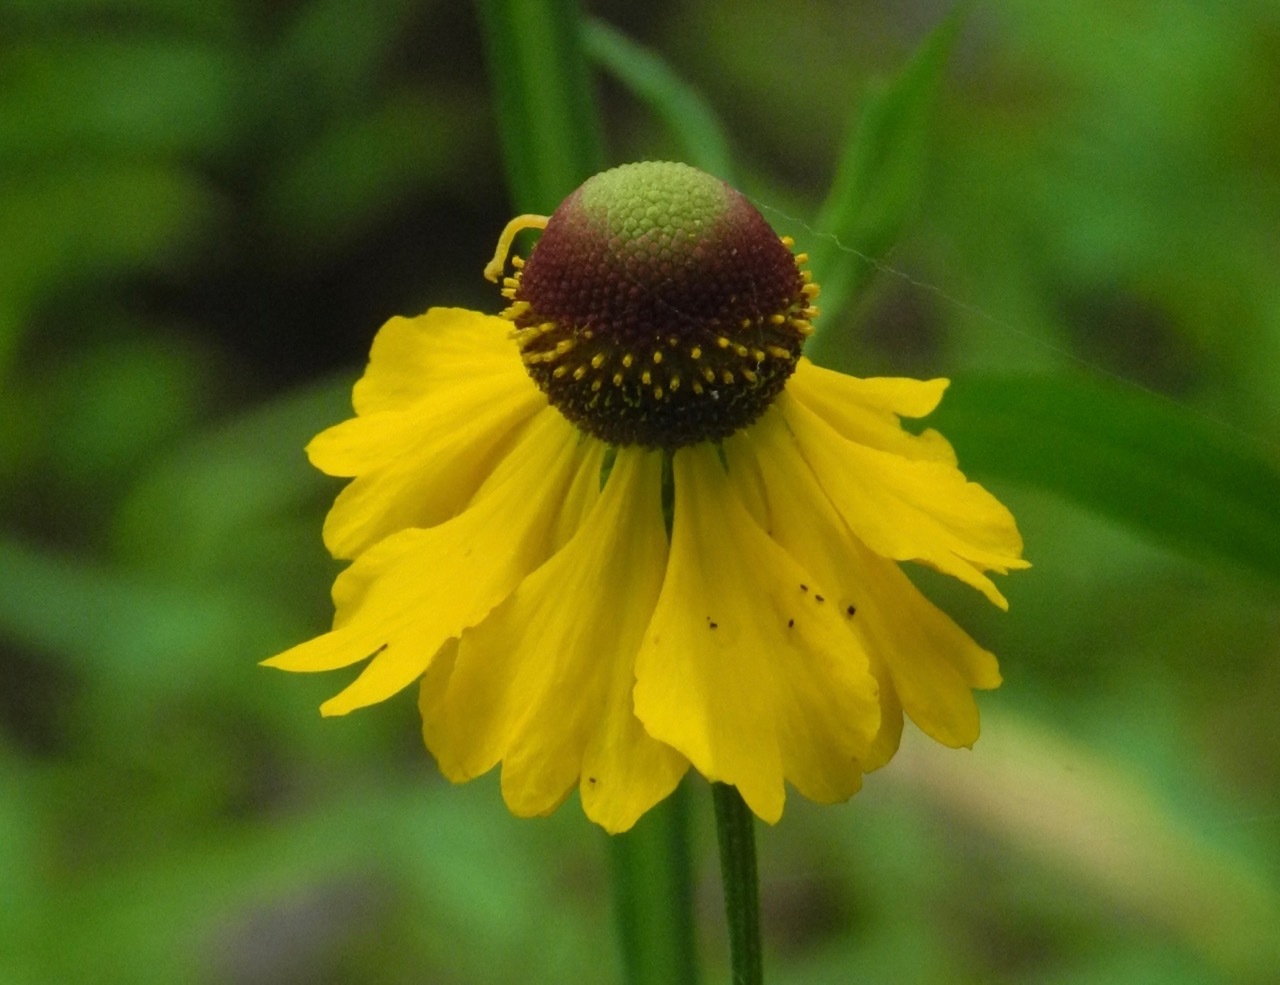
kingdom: Plantae
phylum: Tracheophyta
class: Magnoliopsida
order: Asterales
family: Asteraceae
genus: Helenium
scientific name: Helenium flexuosum
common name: Naked-flowered sneezeweed
